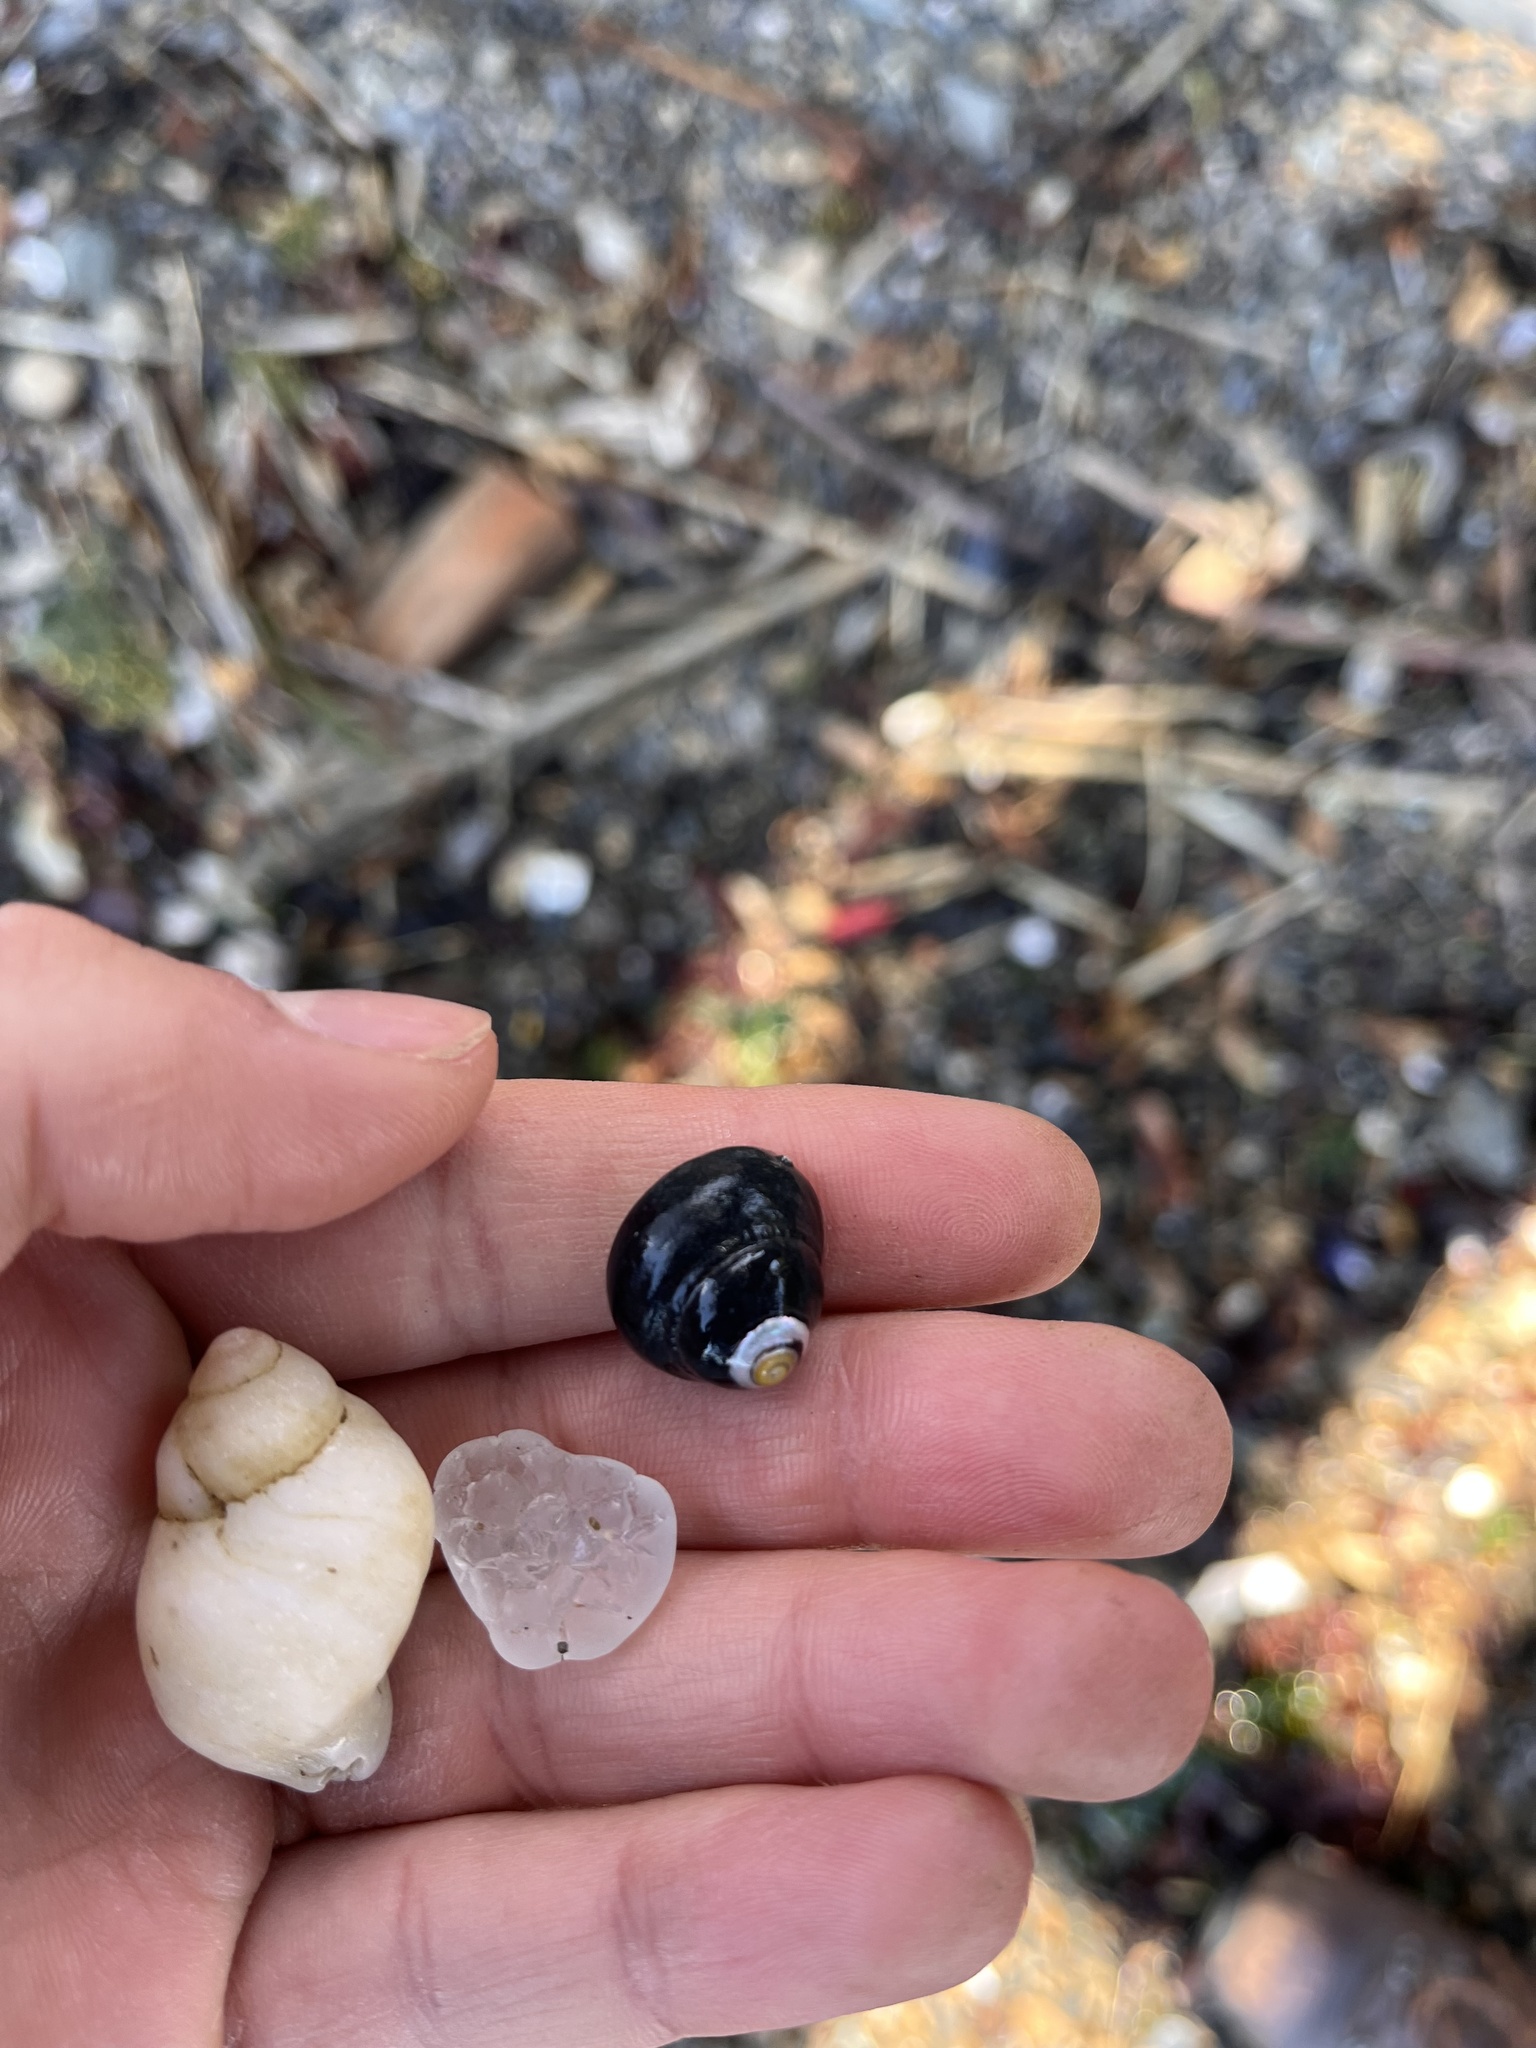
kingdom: Animalia
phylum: Mollusca
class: Gastropoda
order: Neogastropoda
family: Muricidae
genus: Nucella
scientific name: Nucella lamellosa
